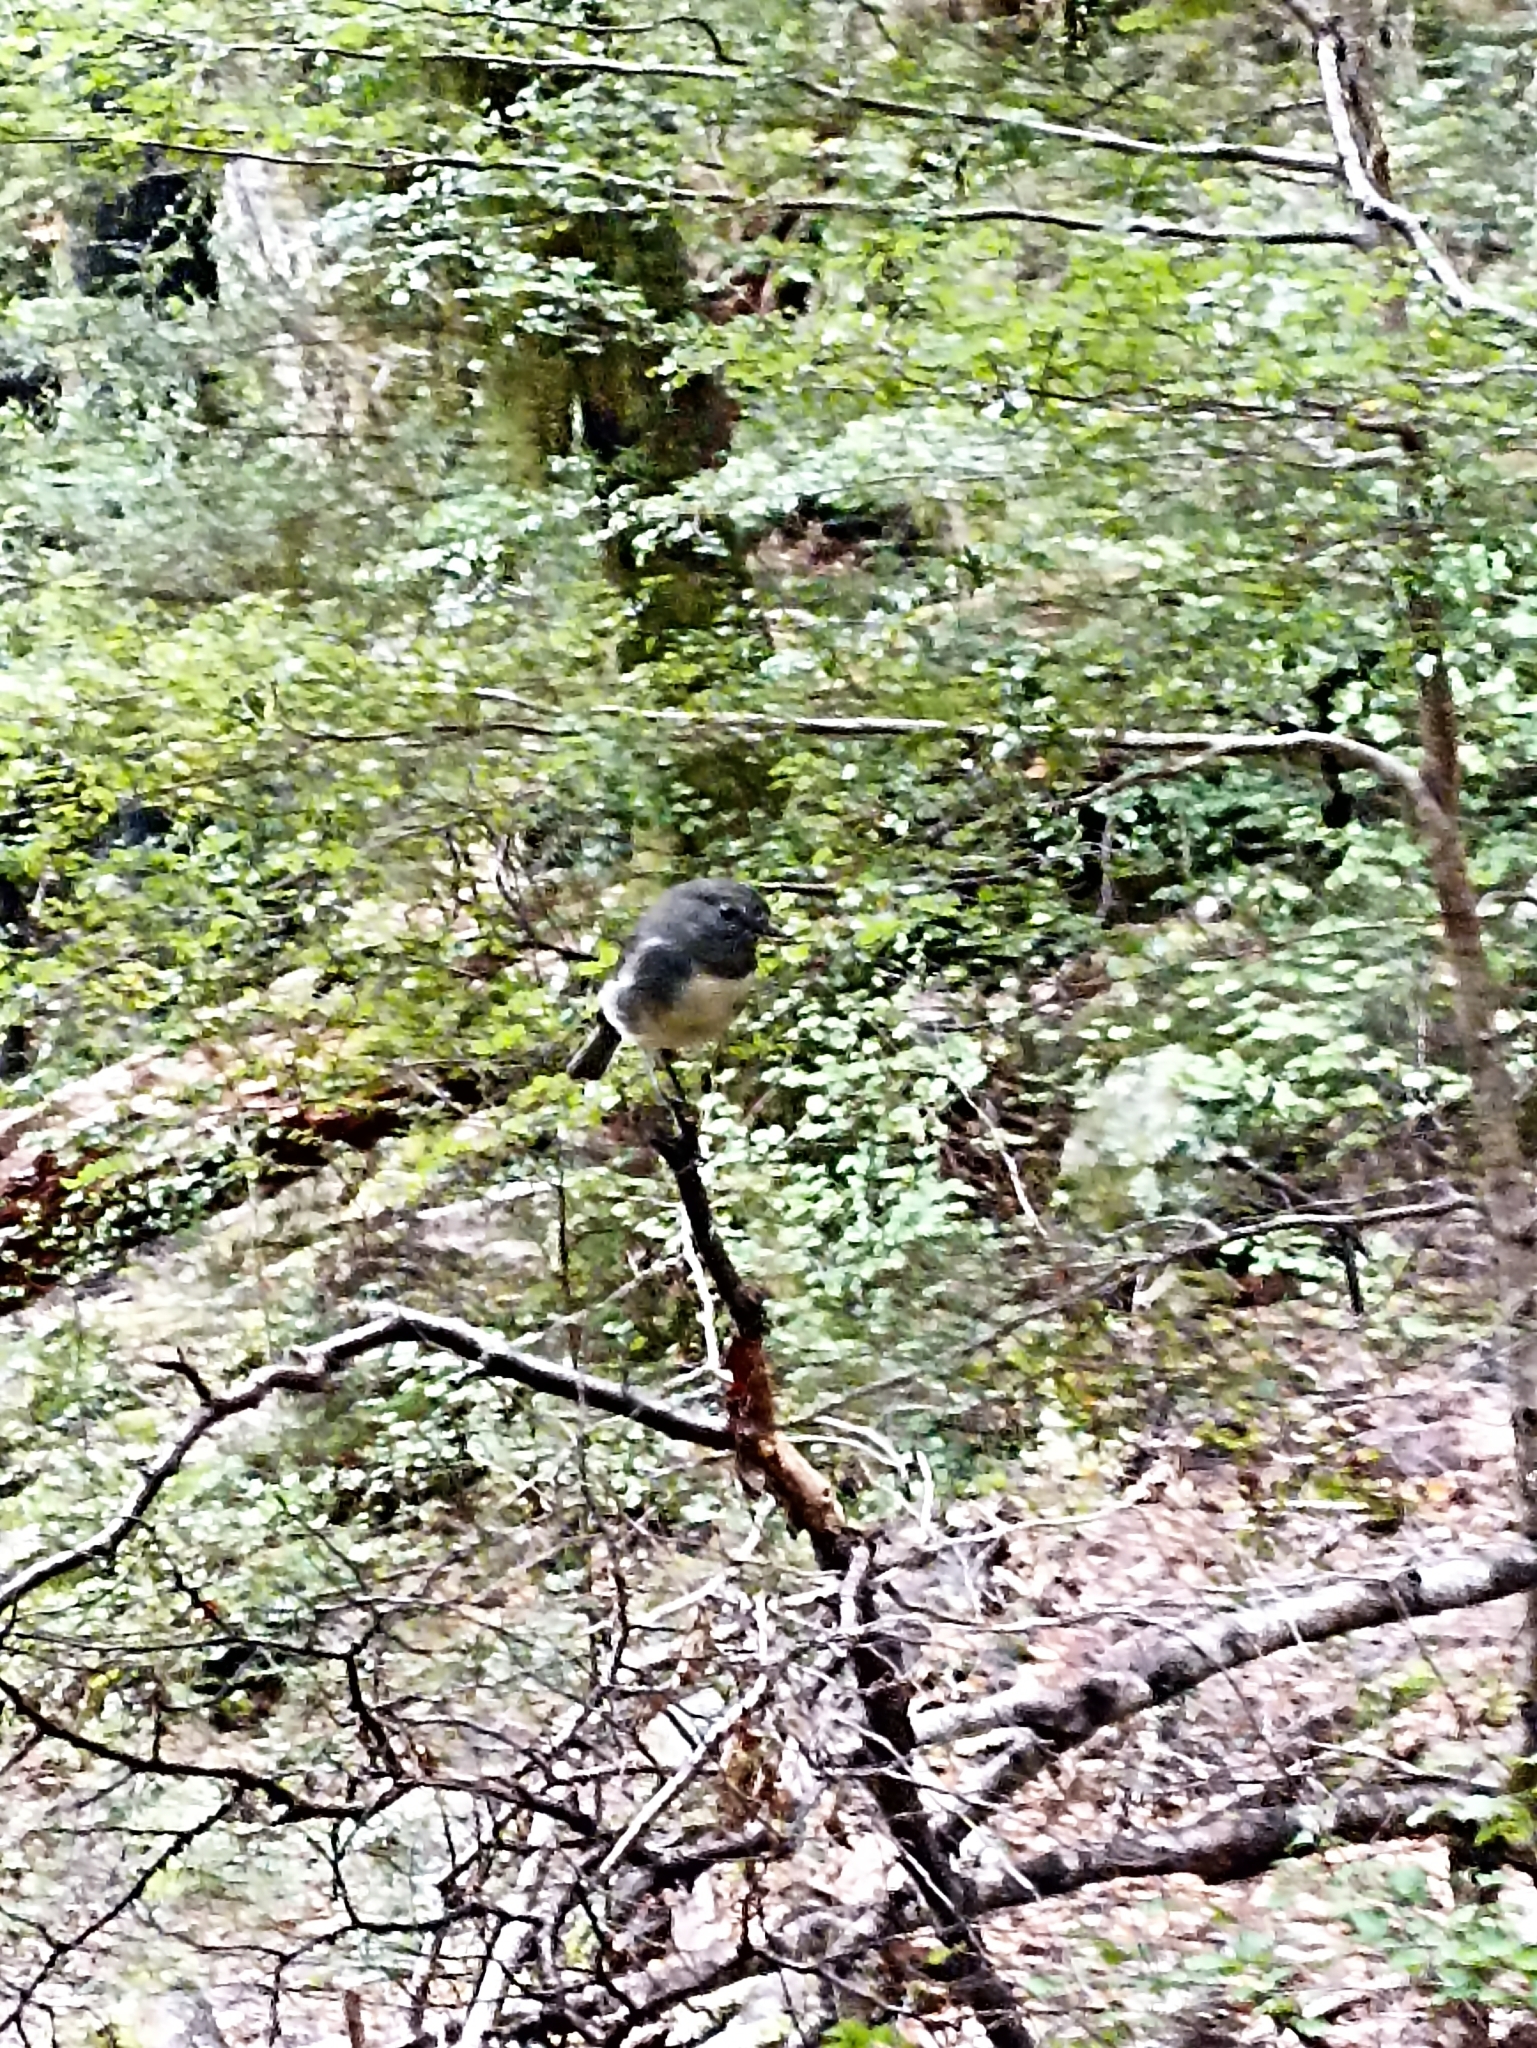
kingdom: Animalia
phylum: Chordata
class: Aves
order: Passeriformes
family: Petroicidae
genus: Petroica
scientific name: Petroica australis
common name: New zealand robin
